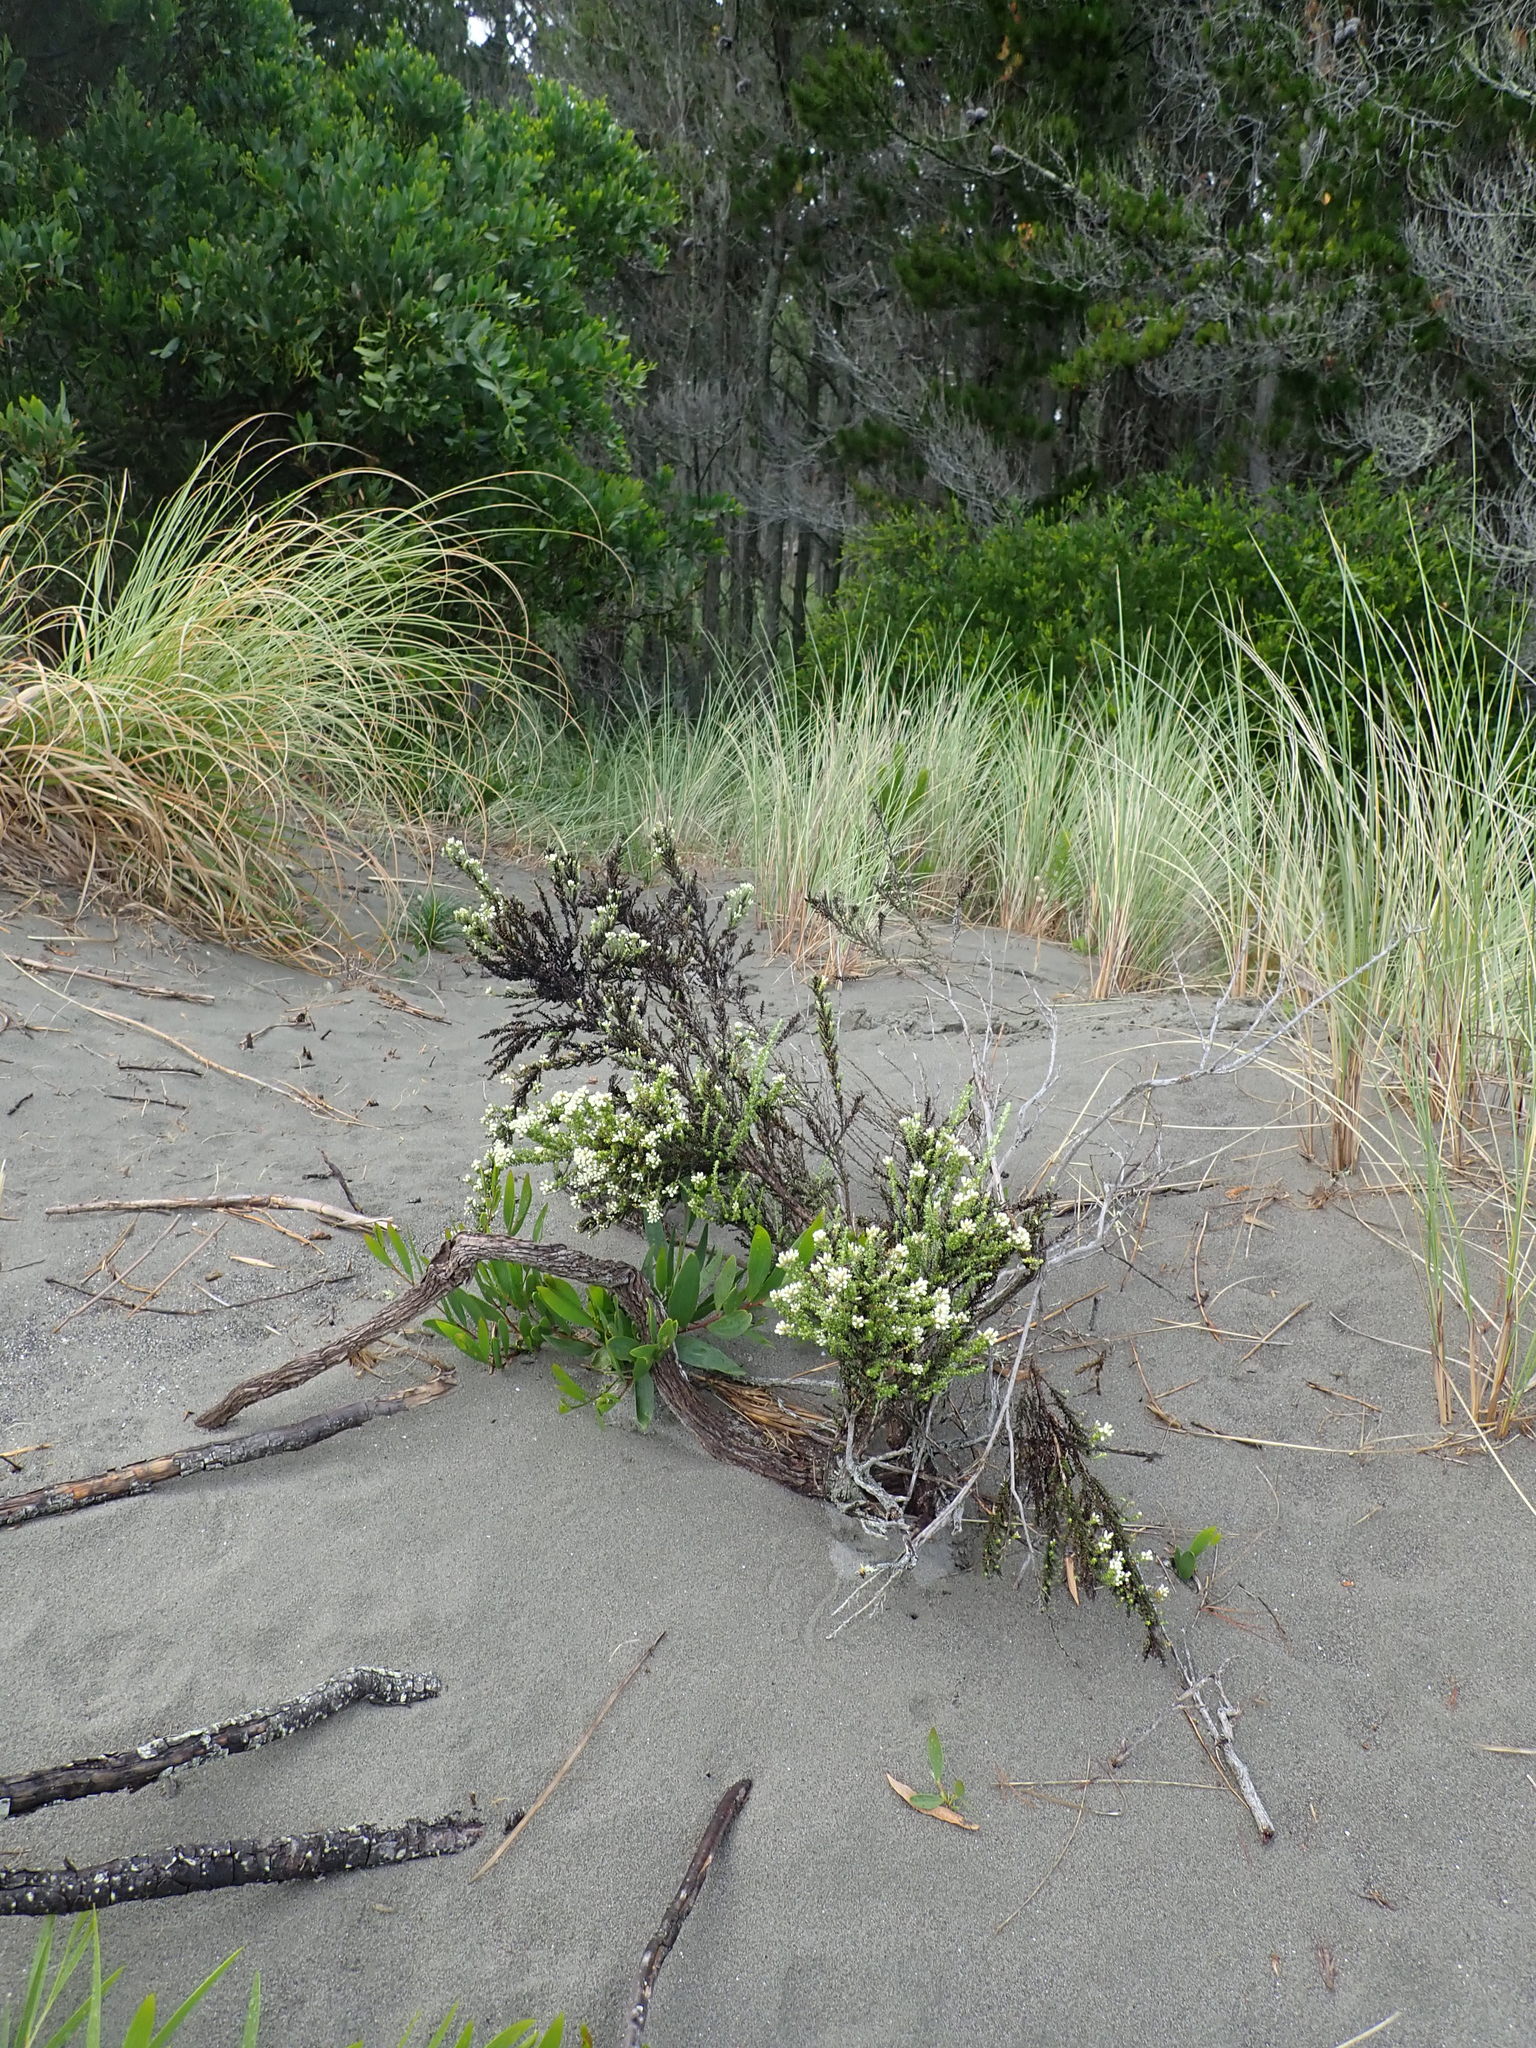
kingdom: Plantae
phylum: Tracheophyta
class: Magnoliopsida
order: Asterales
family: Asteraceae
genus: Ozothamnus
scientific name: Ozothamnus leptophyllus
